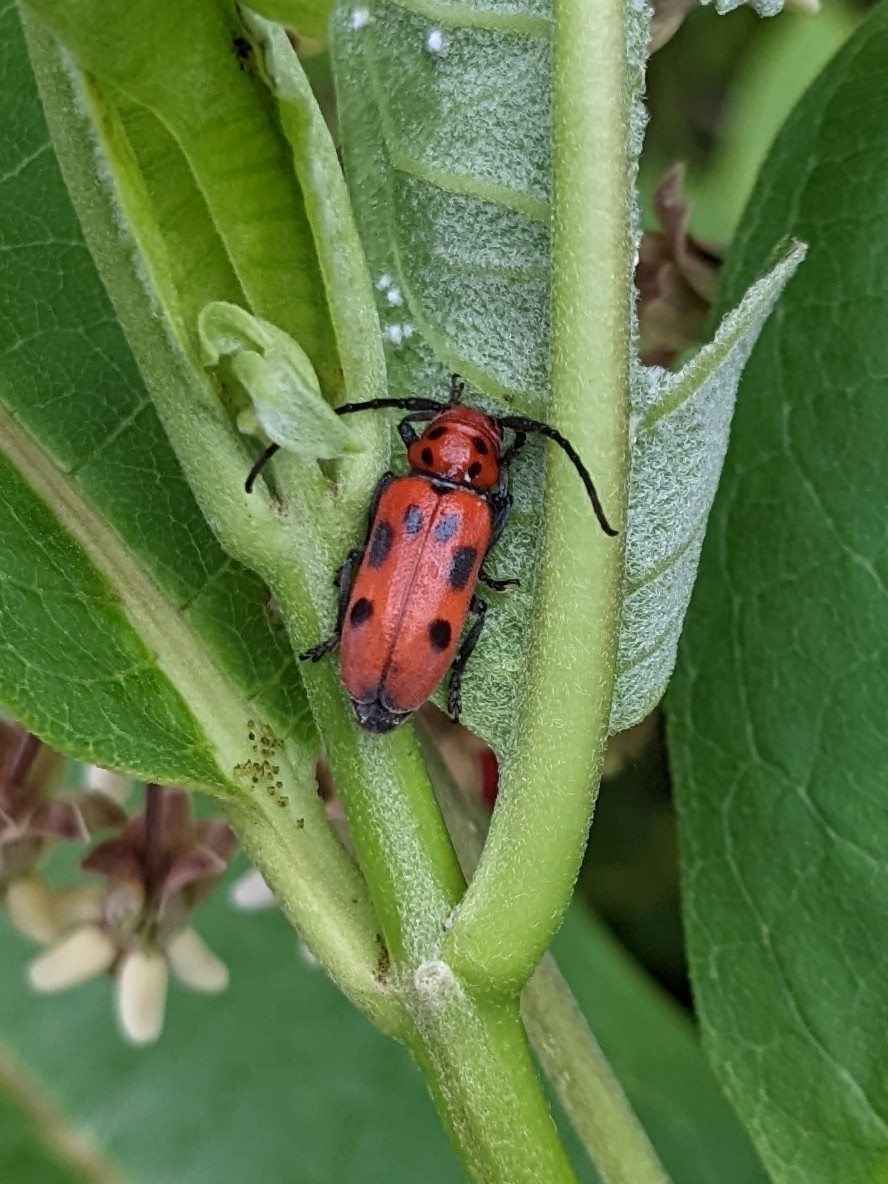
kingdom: Animalia
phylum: Arthropoda
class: Insecta
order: Coleoptera
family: Cerambycidae
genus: Tetraopes
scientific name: Tetraopes tetrophthalmus
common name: Red milkweed beetle
